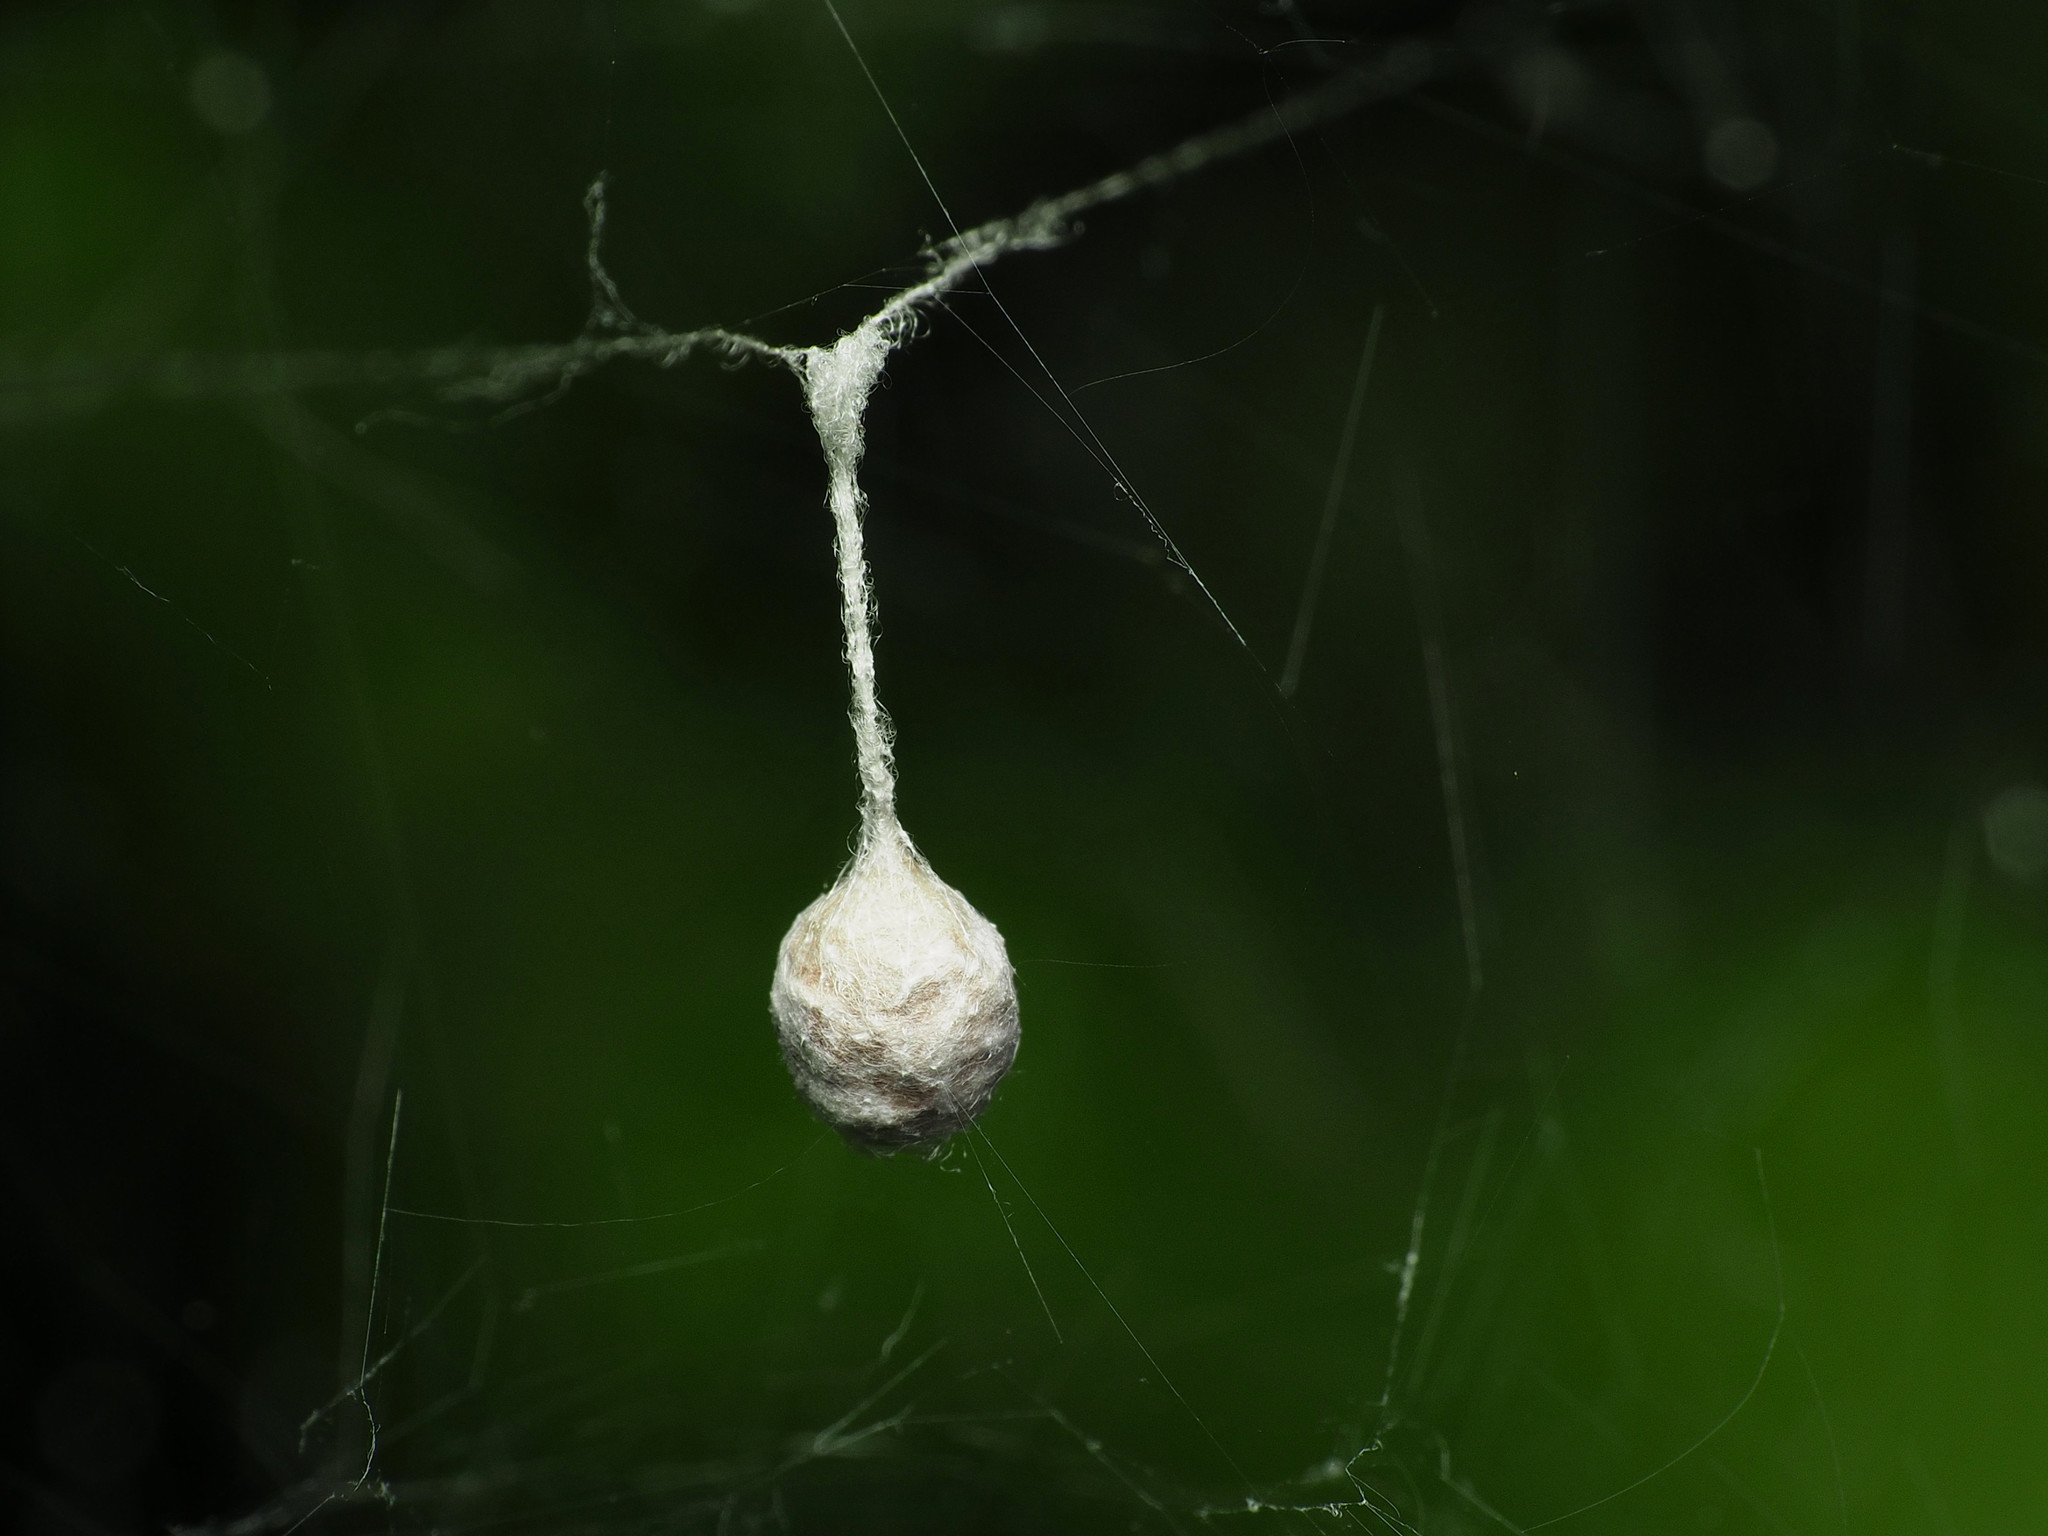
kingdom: Animalia
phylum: Arthropoda
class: Arachnida
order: Araneae
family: Araneidae
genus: Mecynogea
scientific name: Mecynogea lemniscata
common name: Orb weavers
